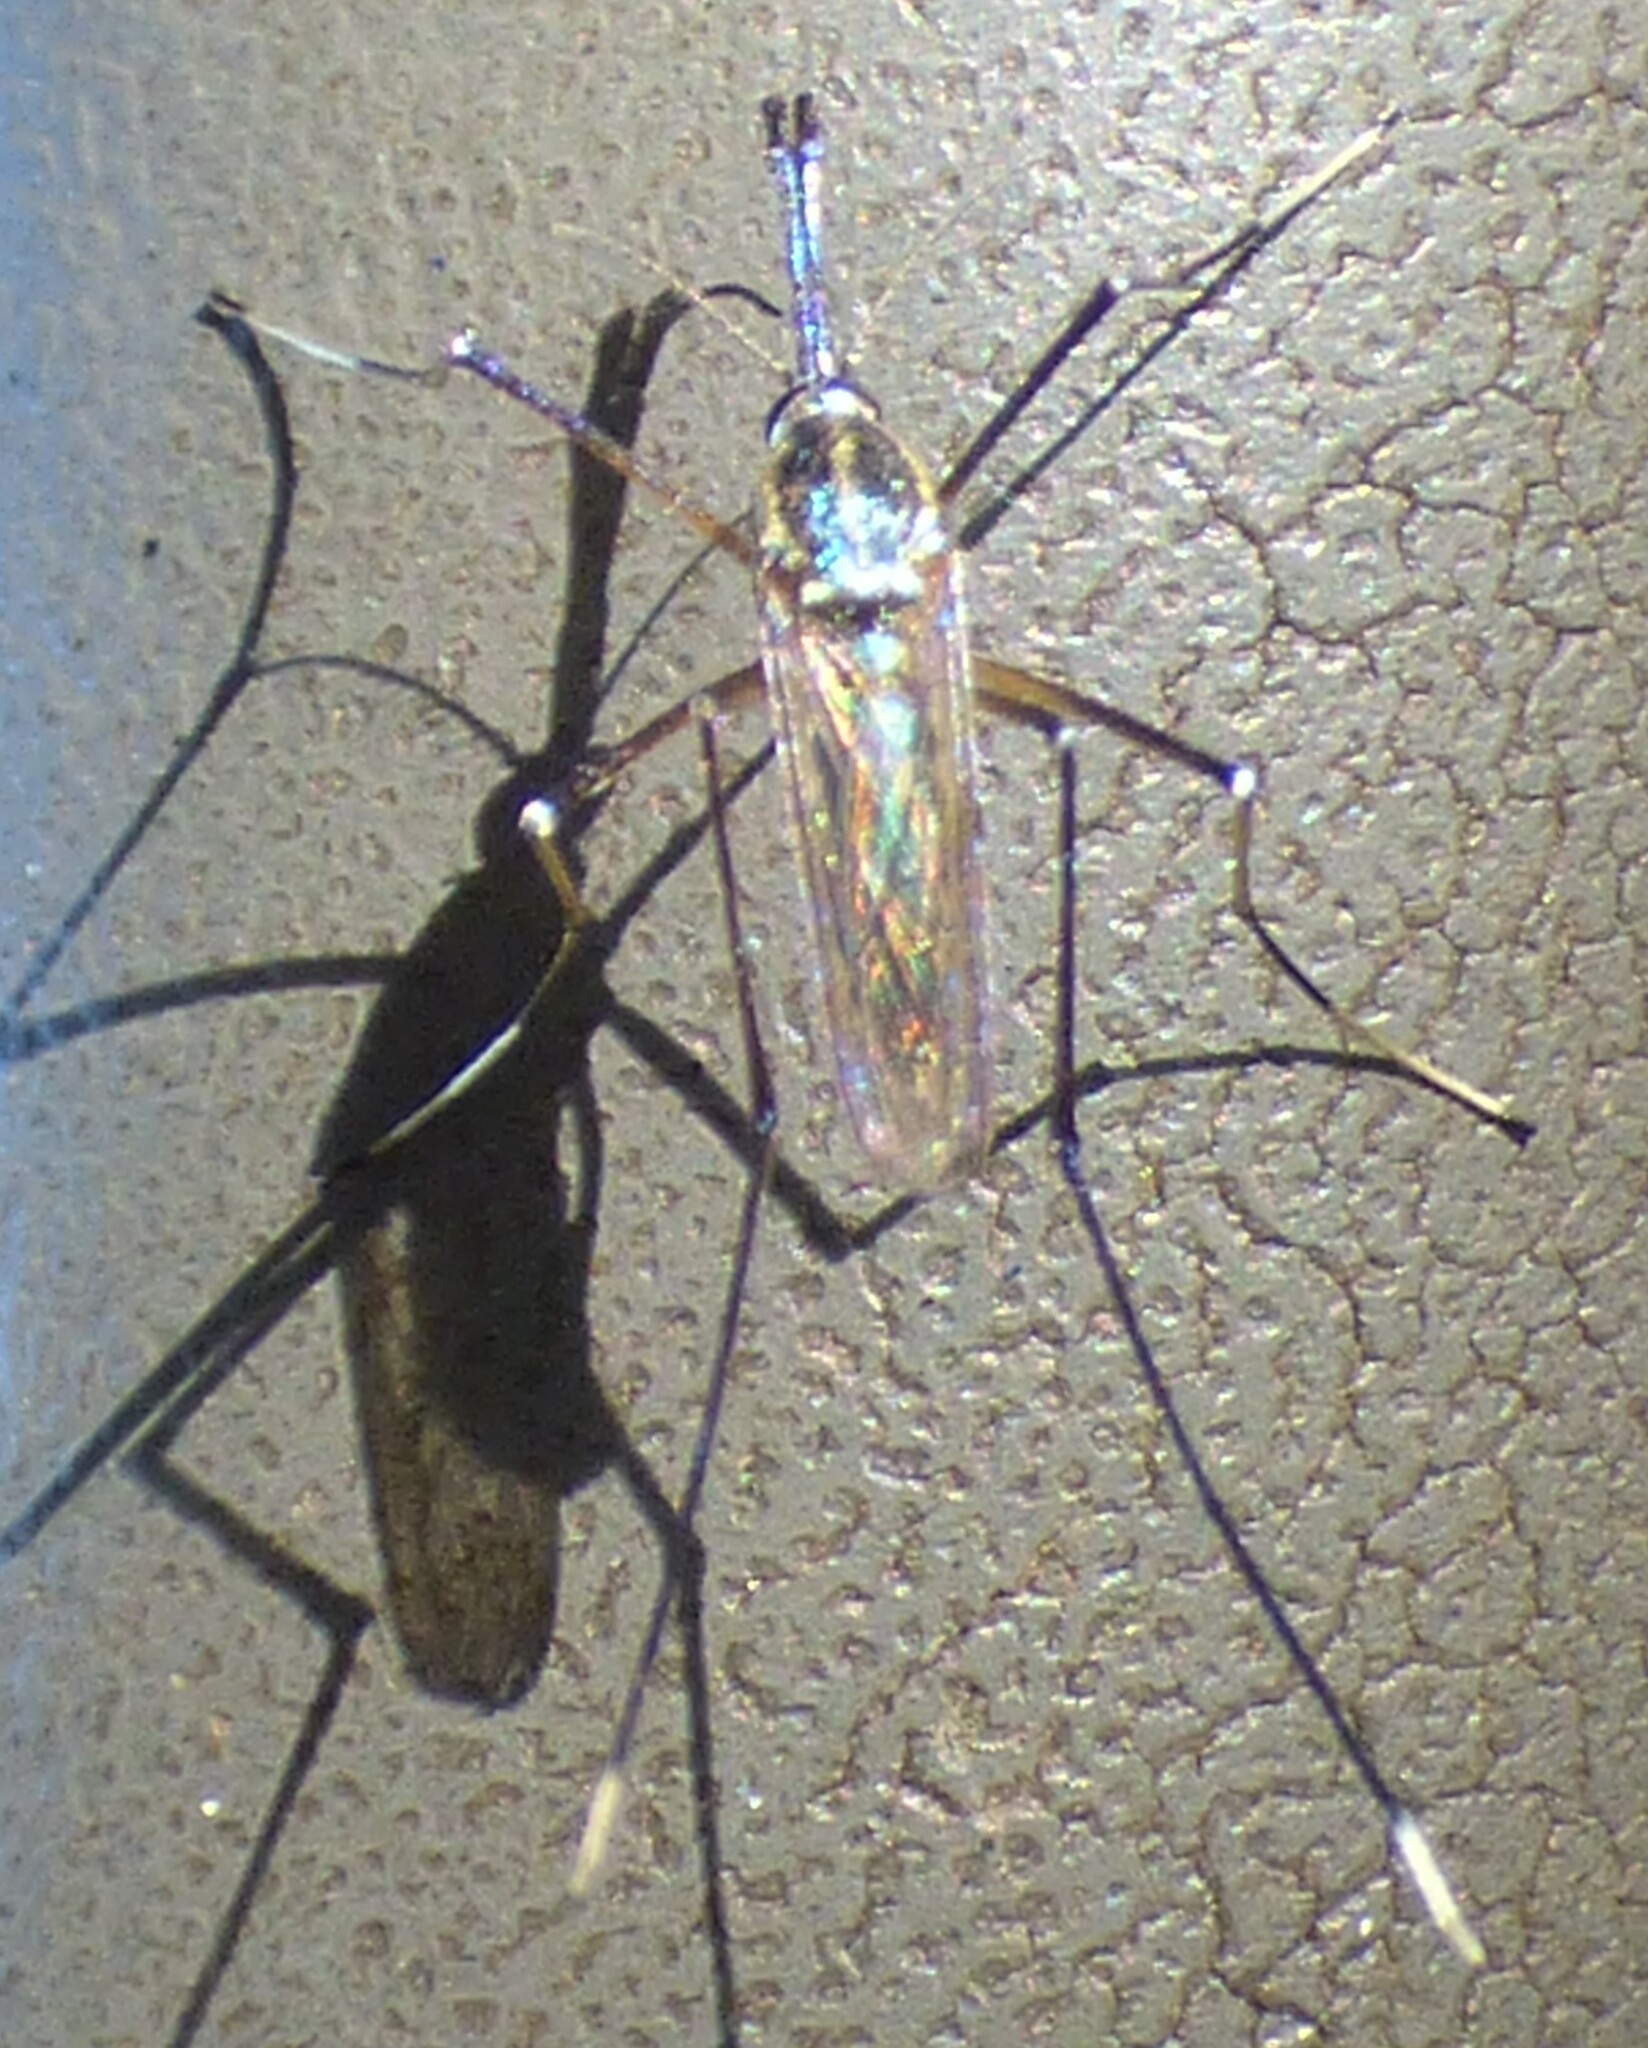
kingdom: Animalia
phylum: Arthropoda
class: Insecta
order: Diptera
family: Culicidae
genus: Toxorhynchites
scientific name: Toxorhynchites rutilus
